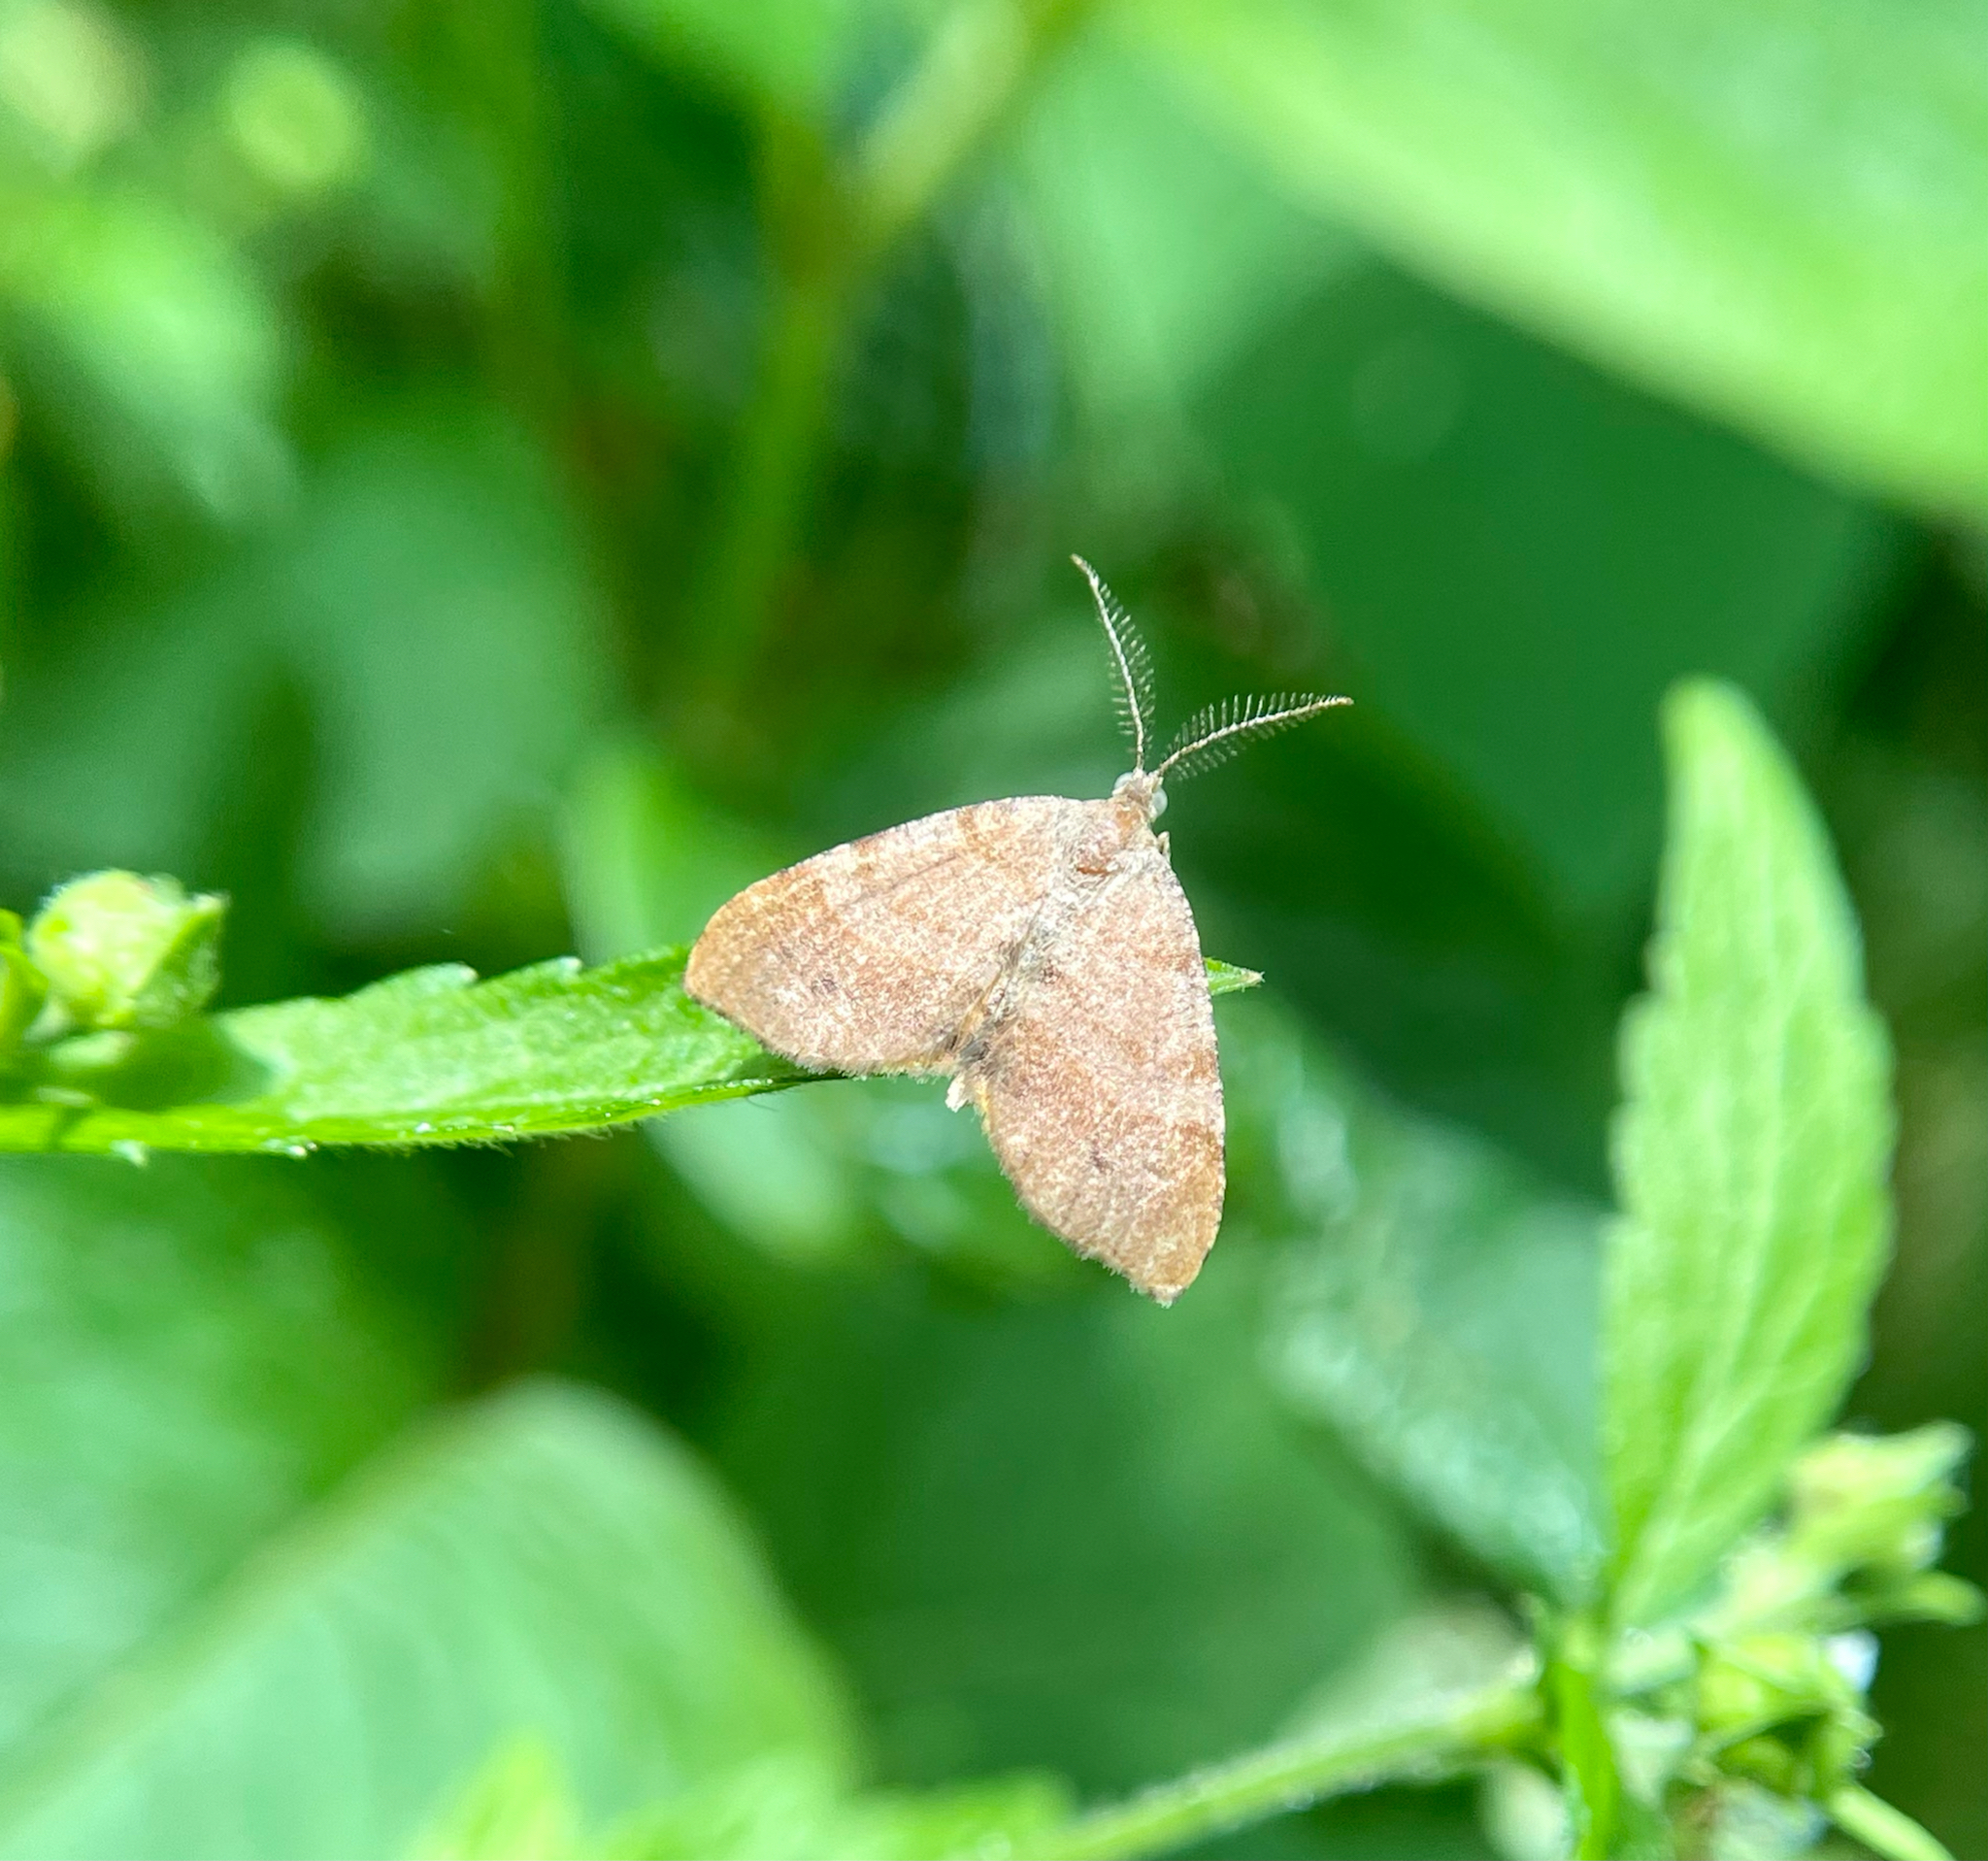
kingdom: Animalia
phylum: Arthropoda
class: Insecta
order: Lepidoptera
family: Geometridae
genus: Mellilla
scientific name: Mellilla xanthometata
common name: Orange wing moth
